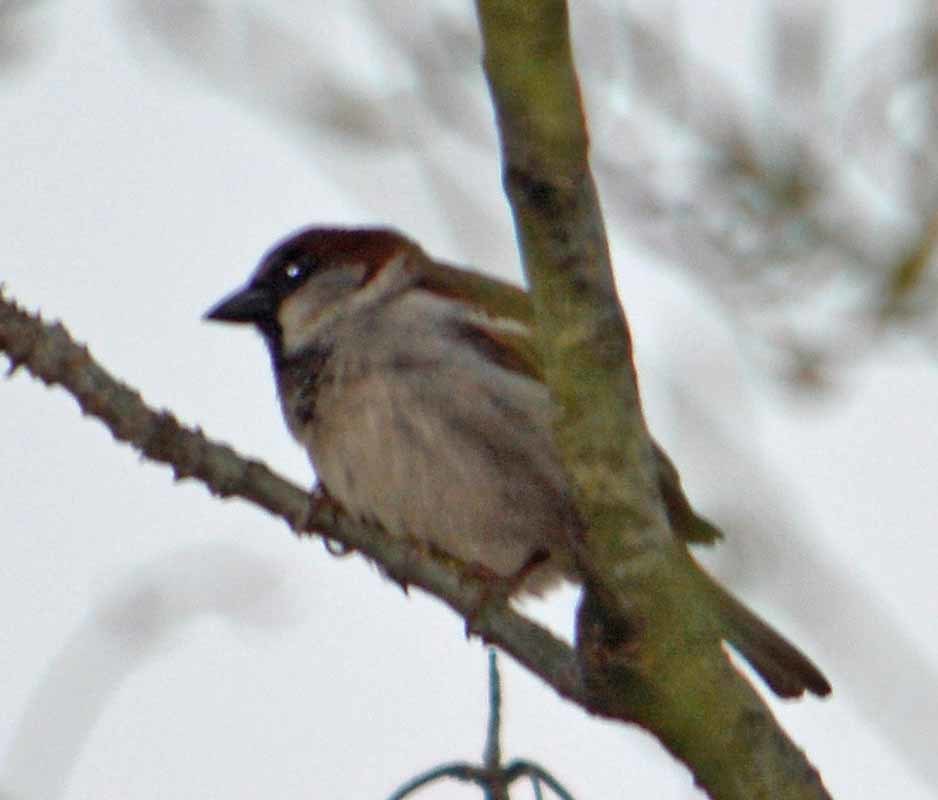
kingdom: Animalia
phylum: Chordata
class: Aves
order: Passeriformes
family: Passeridae
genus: Passer
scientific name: Passer domesticus
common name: House sparrow
